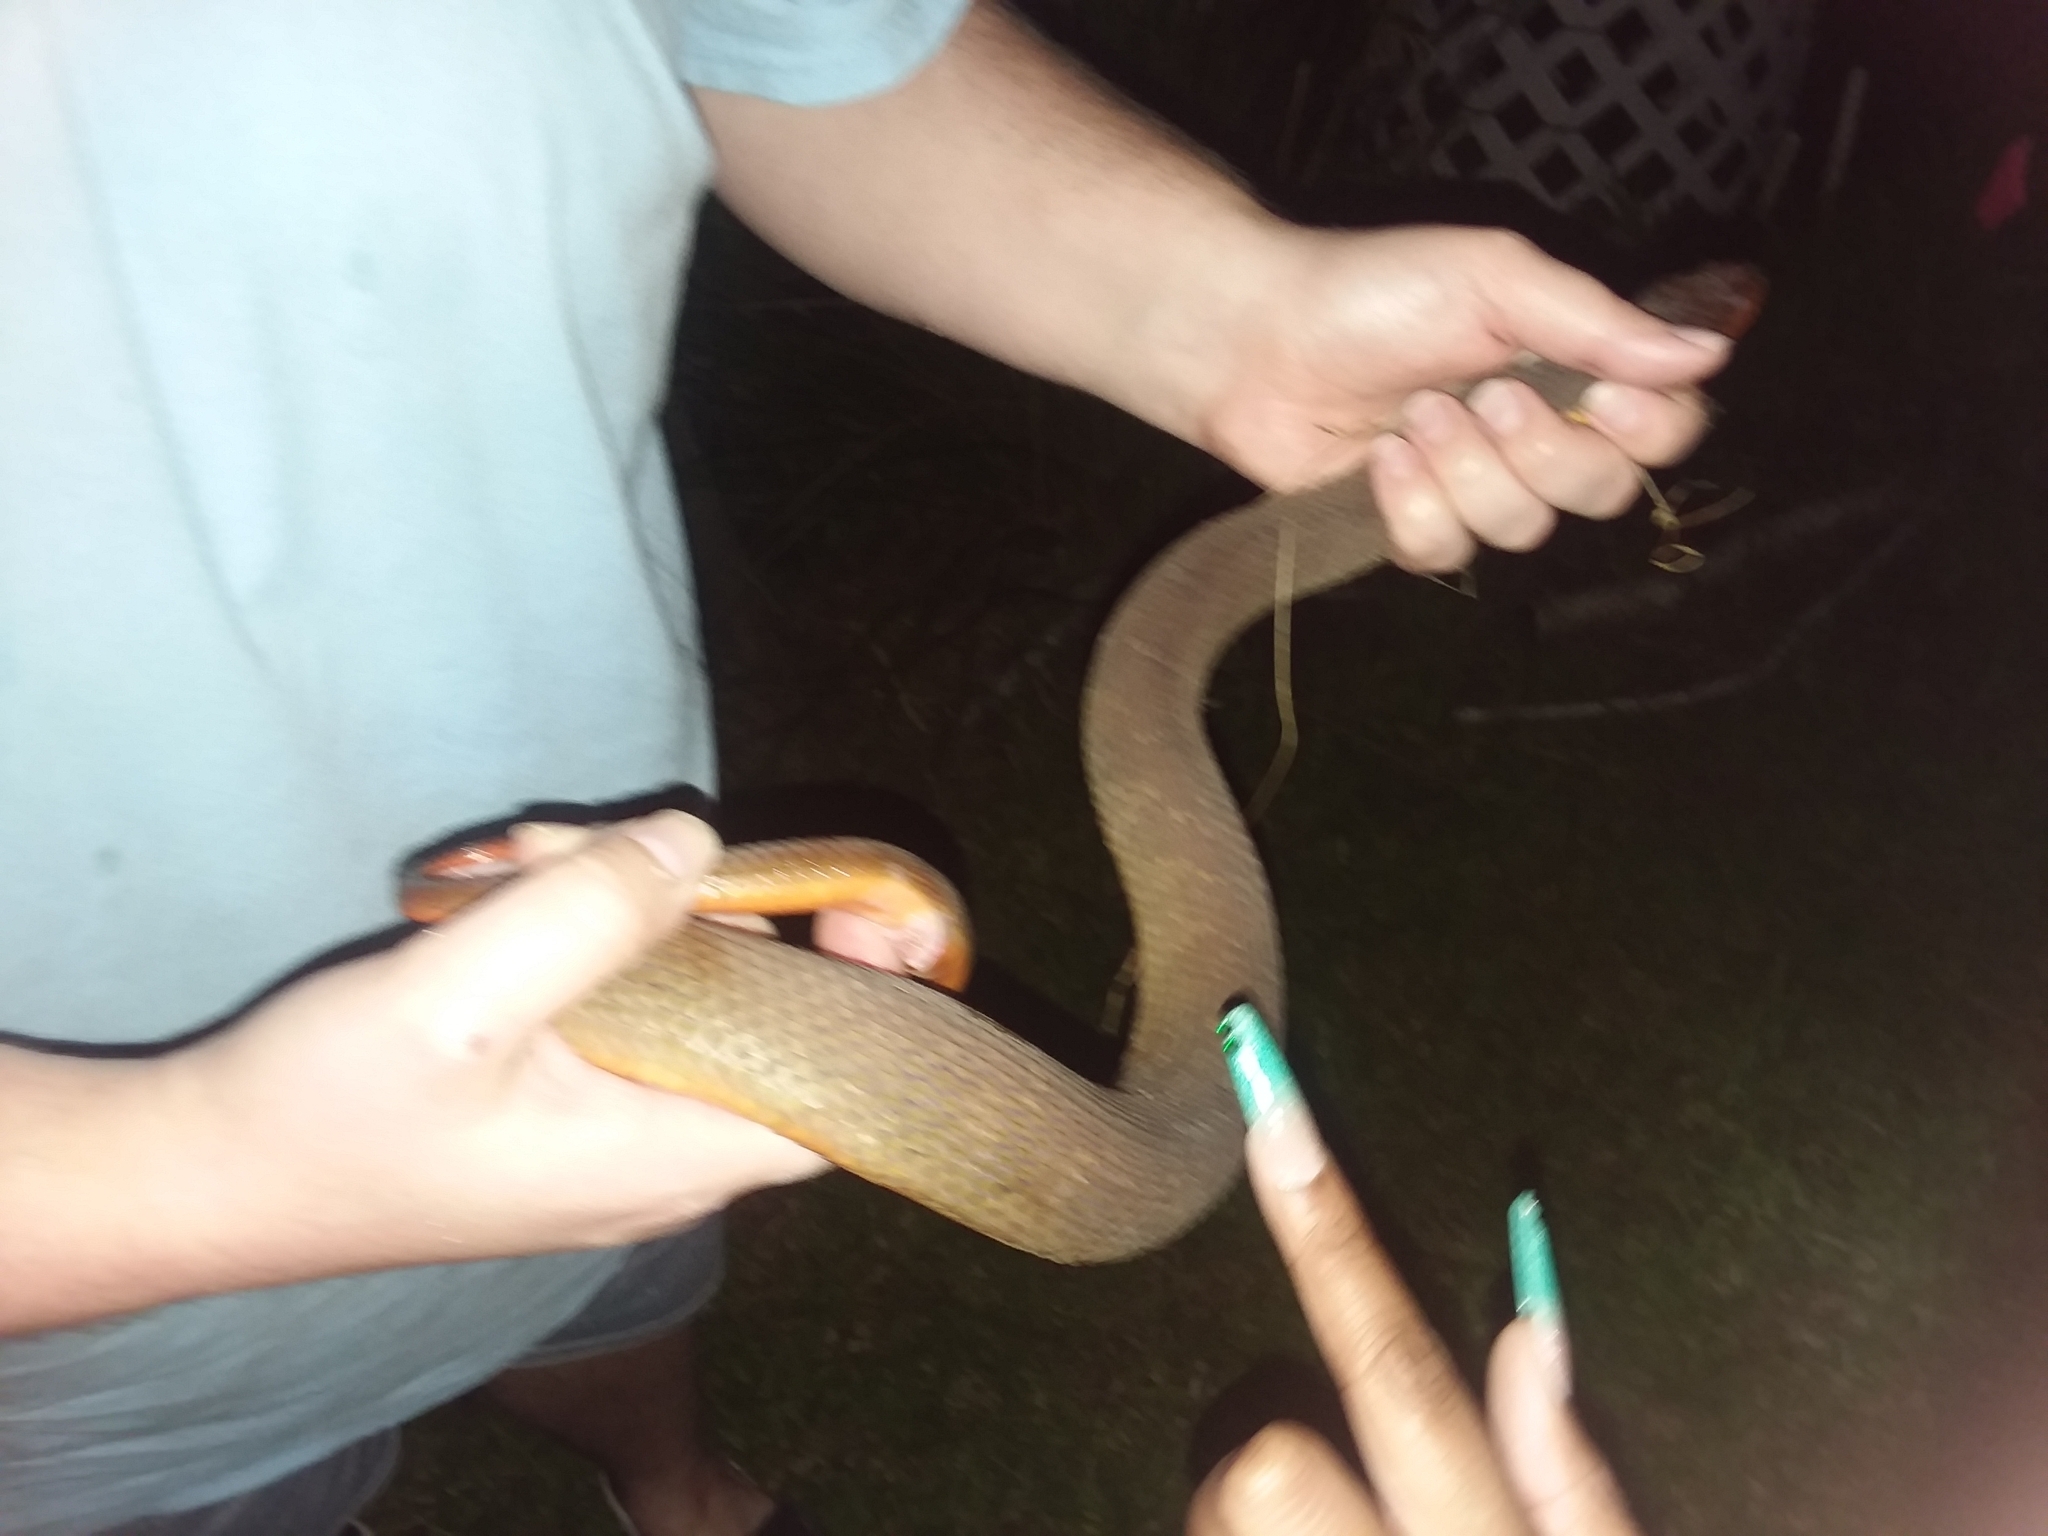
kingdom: Animalia
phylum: Chordata
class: Squamata
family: Colubridae
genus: Nerodia
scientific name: Nerodia erythrogaster
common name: Plainbelly water snake
